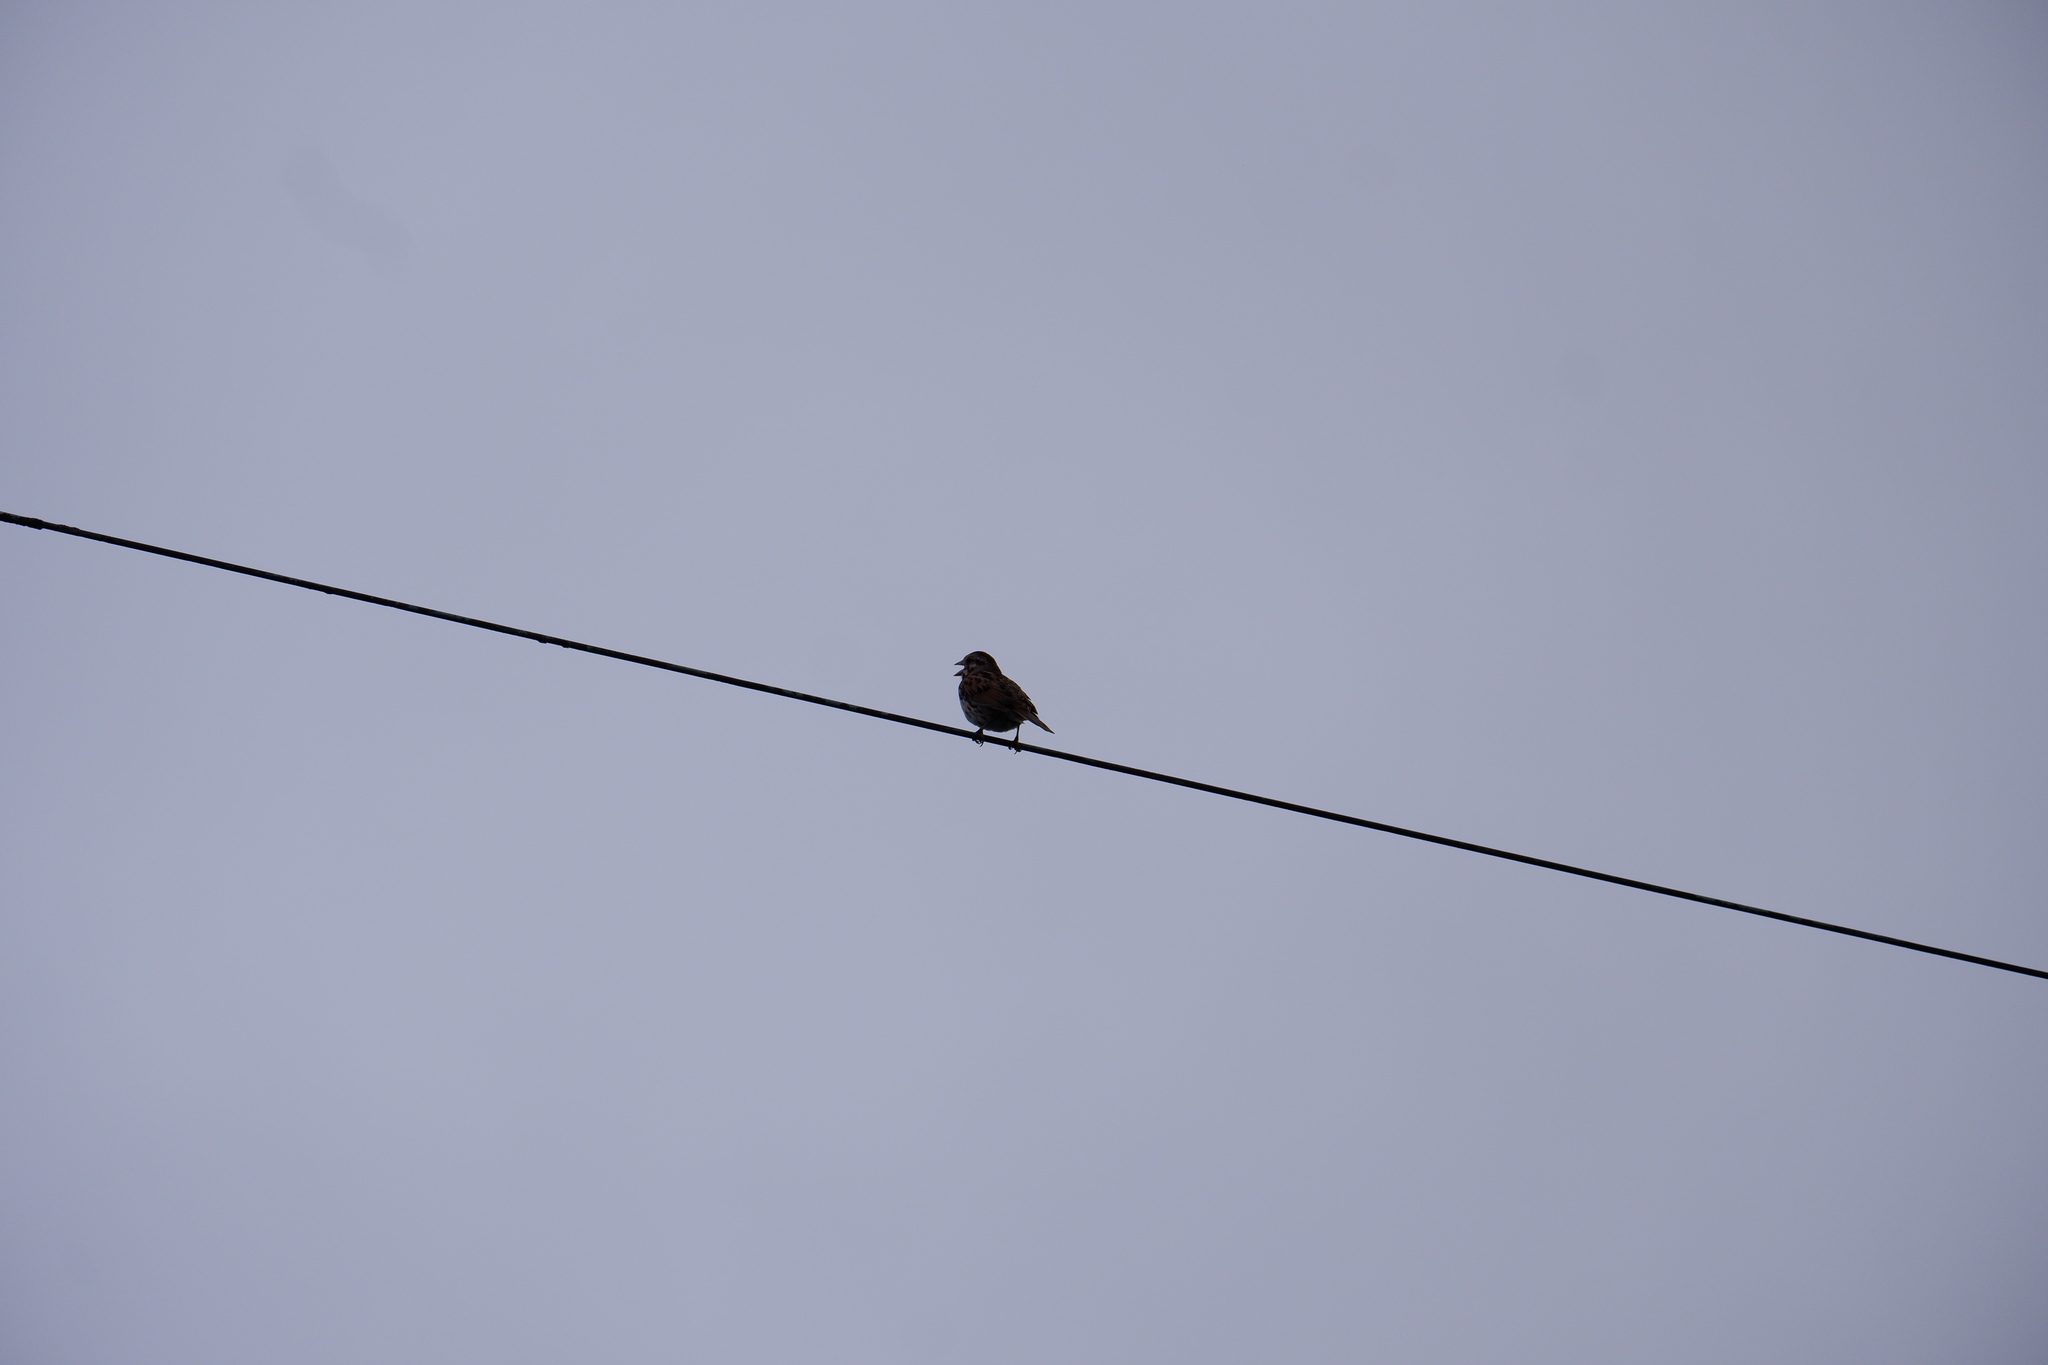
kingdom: Animalia
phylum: Chordata
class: Aves
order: Passeriformes
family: Passerellidae
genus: Melospiza
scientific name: Melospiza melodia
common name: Song sparrow
